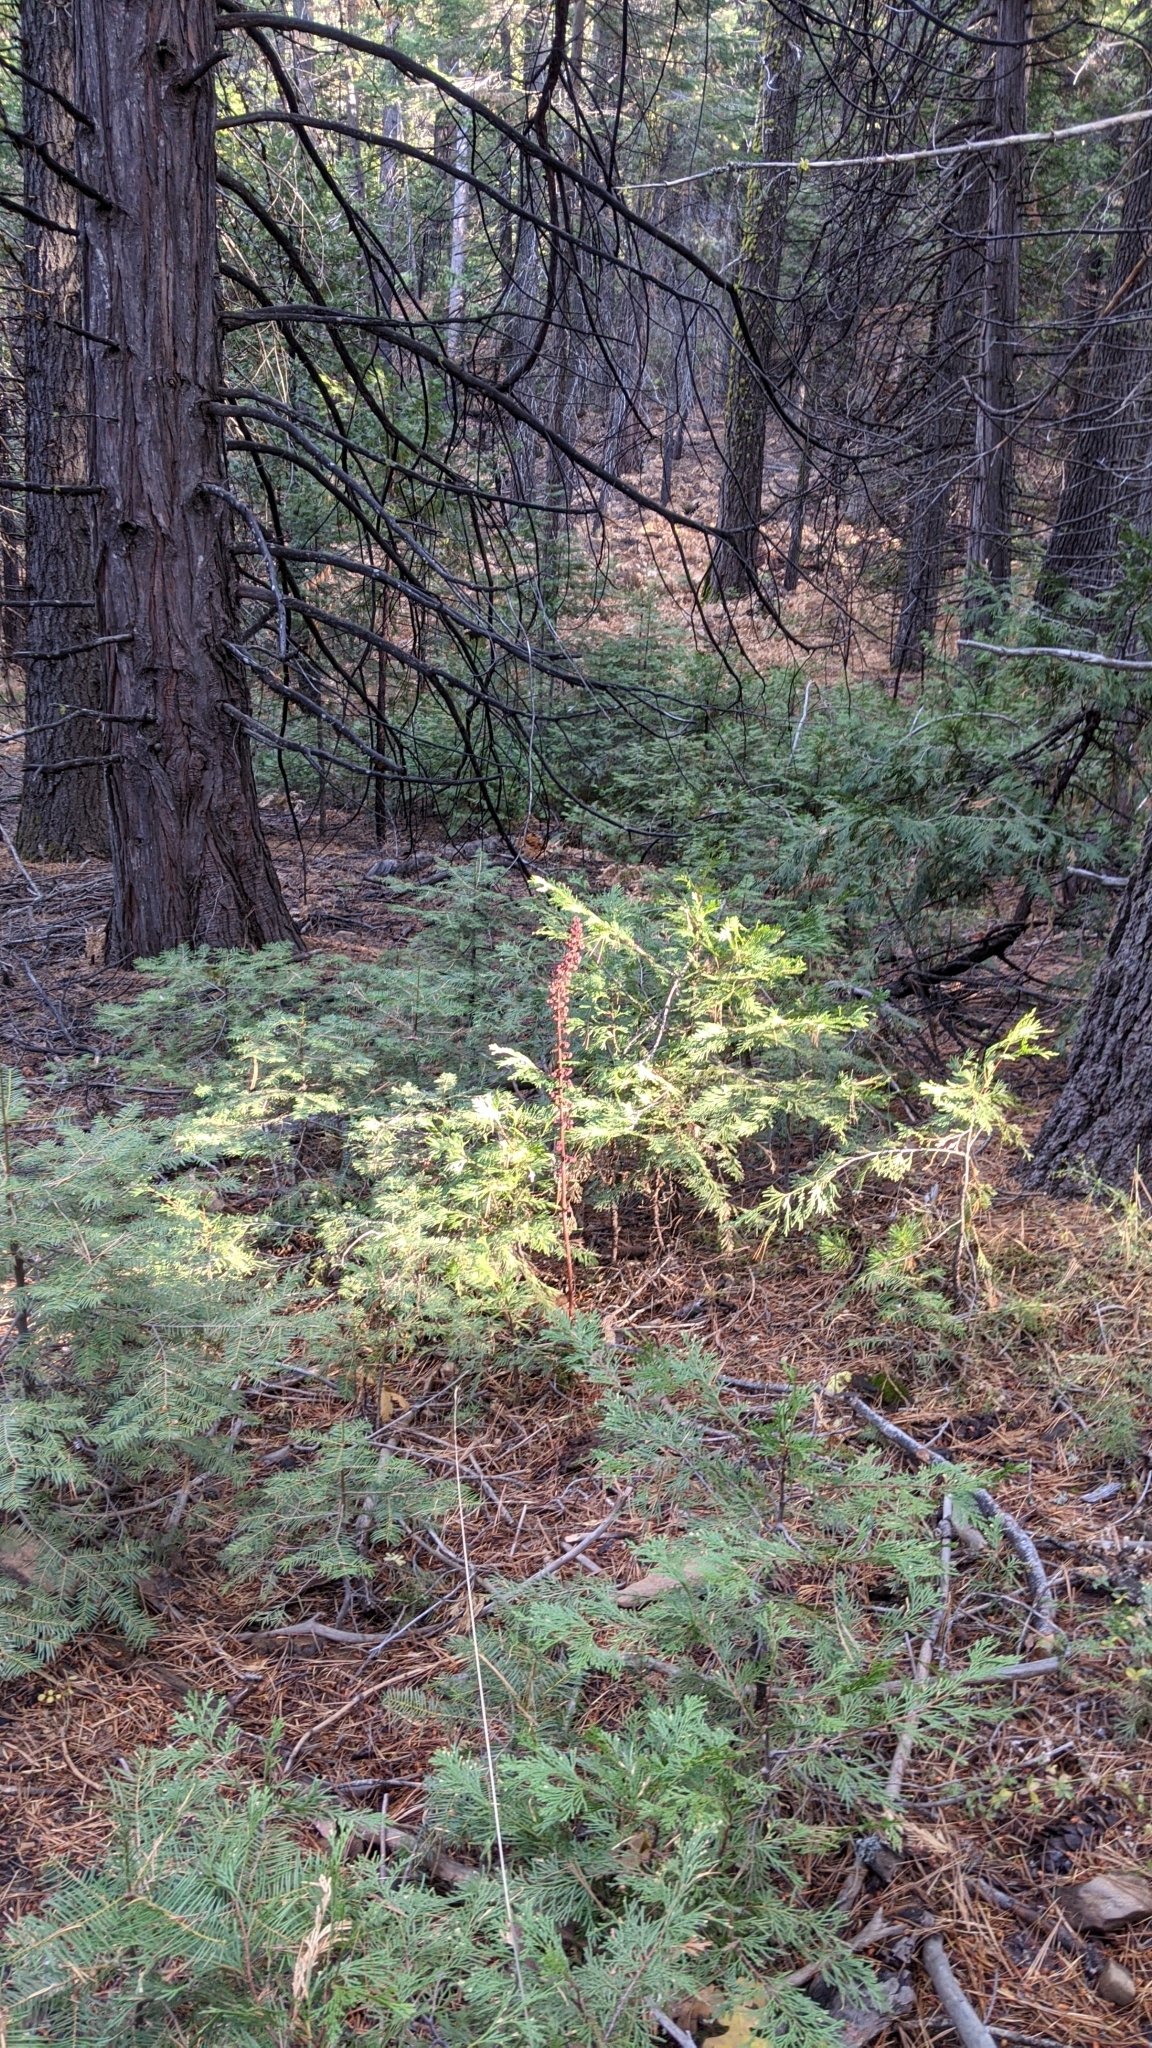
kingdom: Plantae
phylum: Tracheophyta
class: Magnoliopsida
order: Ericales
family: Ericaceae
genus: Pterospora
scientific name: Pterospora andromedea
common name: Giant bird's-nest
